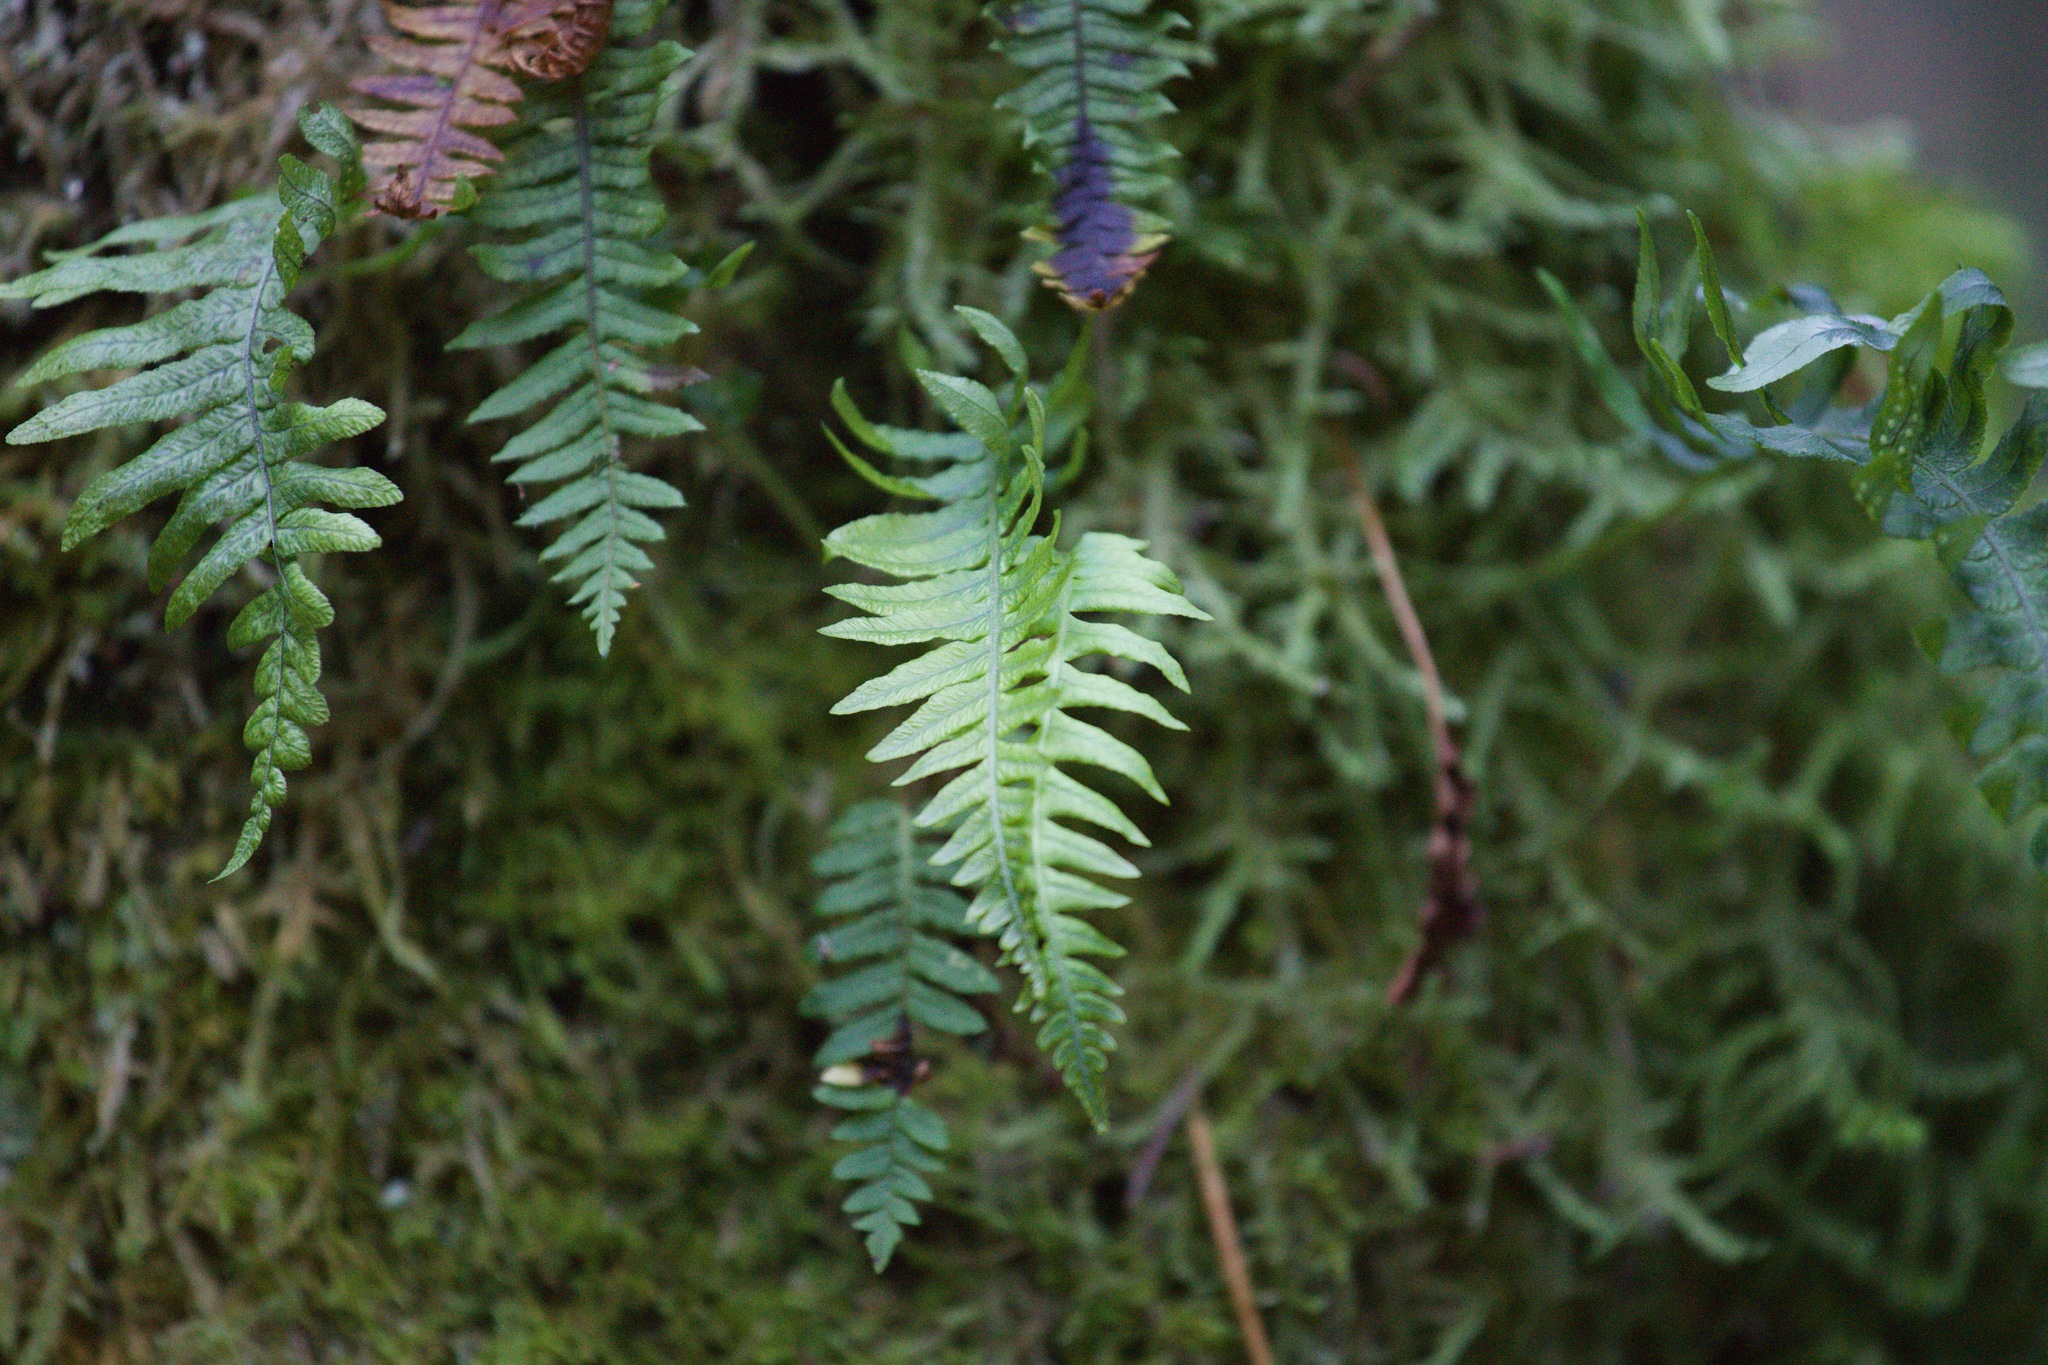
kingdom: Plantae
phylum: Tracheophyta
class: Polypodiopsida
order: Polypodiales
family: Polypodiaceae
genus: Polypodium
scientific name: Polypodium glycyrrhiza
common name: Licorice fern
